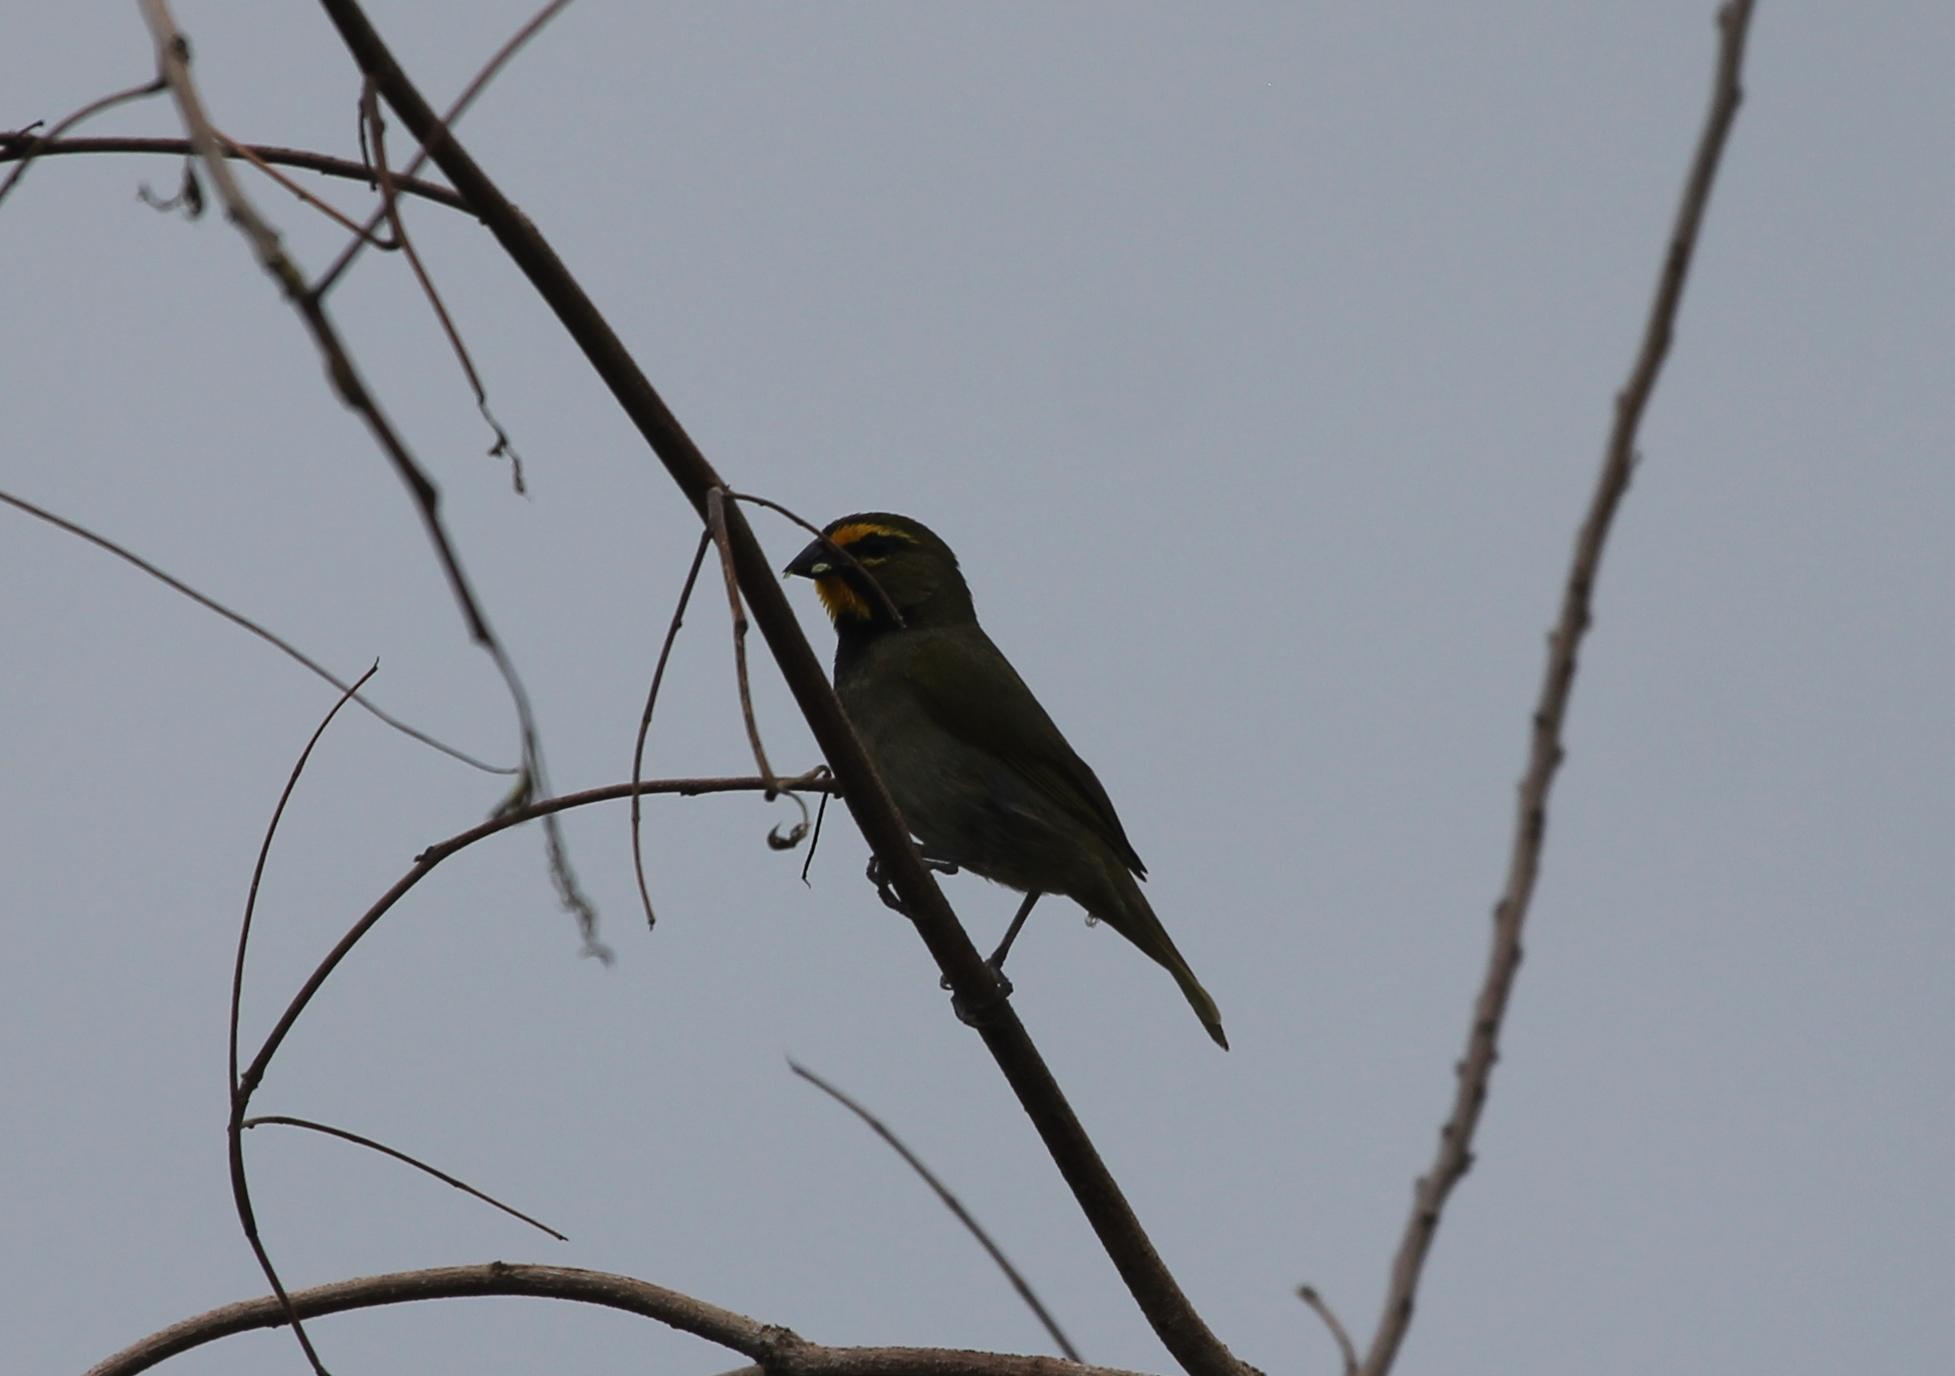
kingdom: Animalia
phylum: Chordata
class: Aves
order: Passeriformes
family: Thraupidae
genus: Tiaris
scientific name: Tiaris olivaceus
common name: Yellow-faced grassquit
